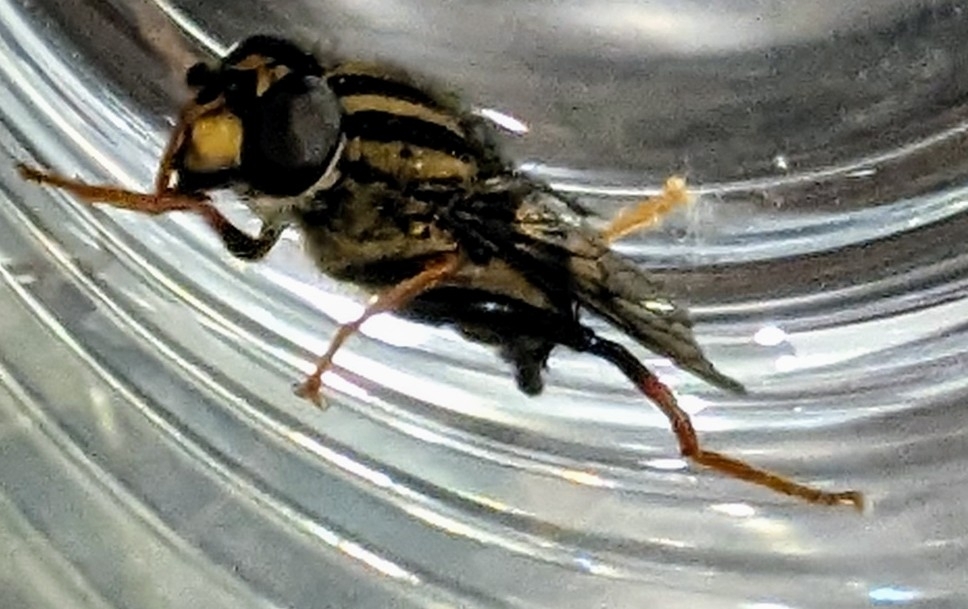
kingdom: Animalia
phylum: Arthropoda
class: Insecta
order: Diptera
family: Syrphidae
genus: Helophilus
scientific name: Helophilus seelandicus
